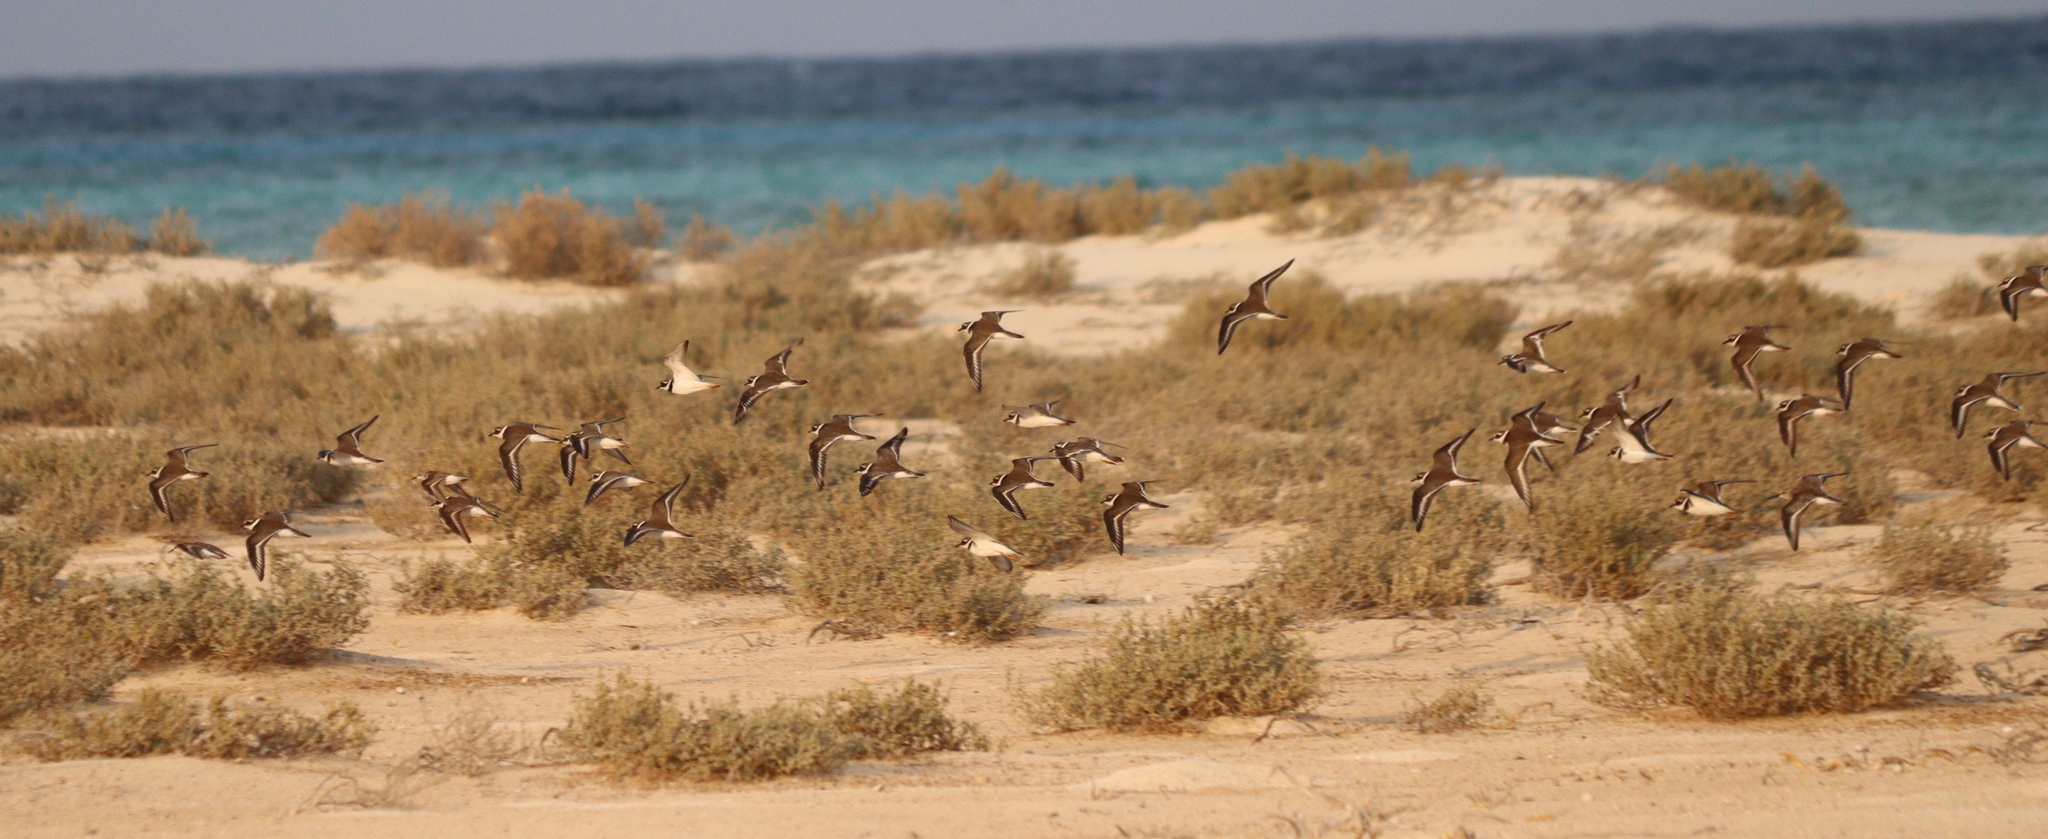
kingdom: Animalia
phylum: Chordata
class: Aves
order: Charadriiformes
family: Charadriidae
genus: Charadrius
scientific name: Charadrius hiaticula
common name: Common ringed plover
